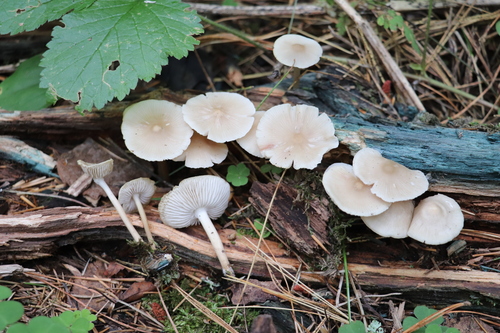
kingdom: Fungi
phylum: Basidiomycota
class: Agaricomycetes
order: Agaricales
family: Mycenaceae
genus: Mycena
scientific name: Mycena
